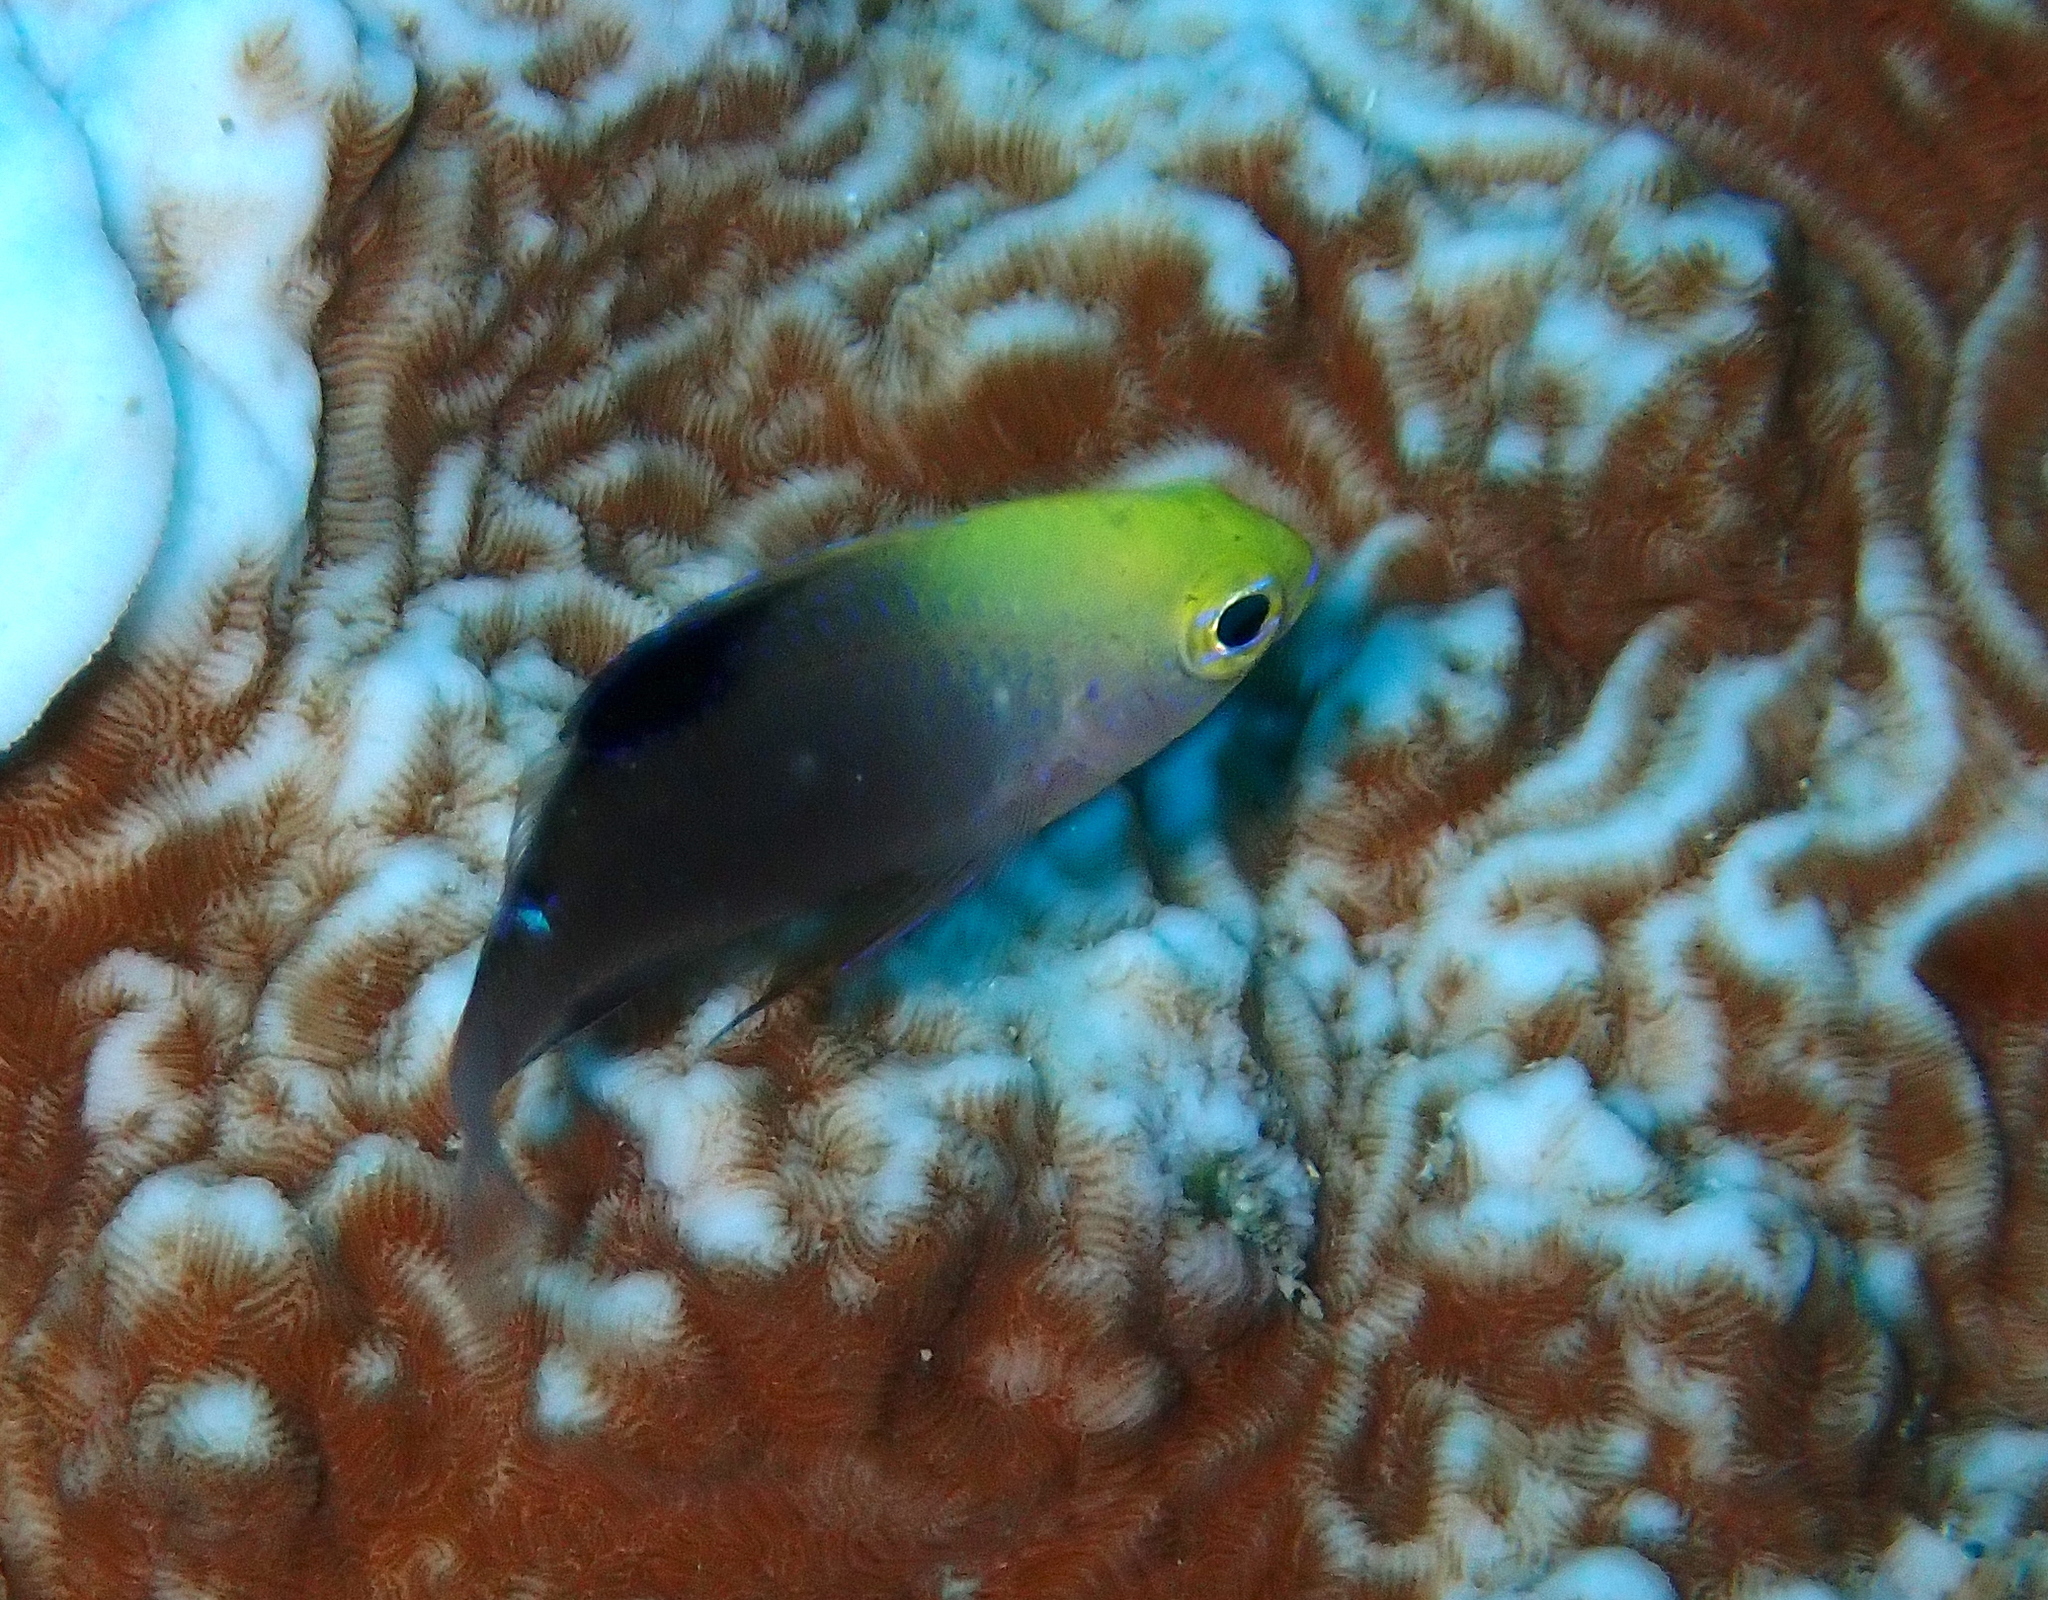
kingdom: Animalia
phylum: Chordata
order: Perciformes
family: Pomacentridae
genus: Chrysiptera
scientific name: Chrysiptera talboti
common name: Talbot's demoiselle
